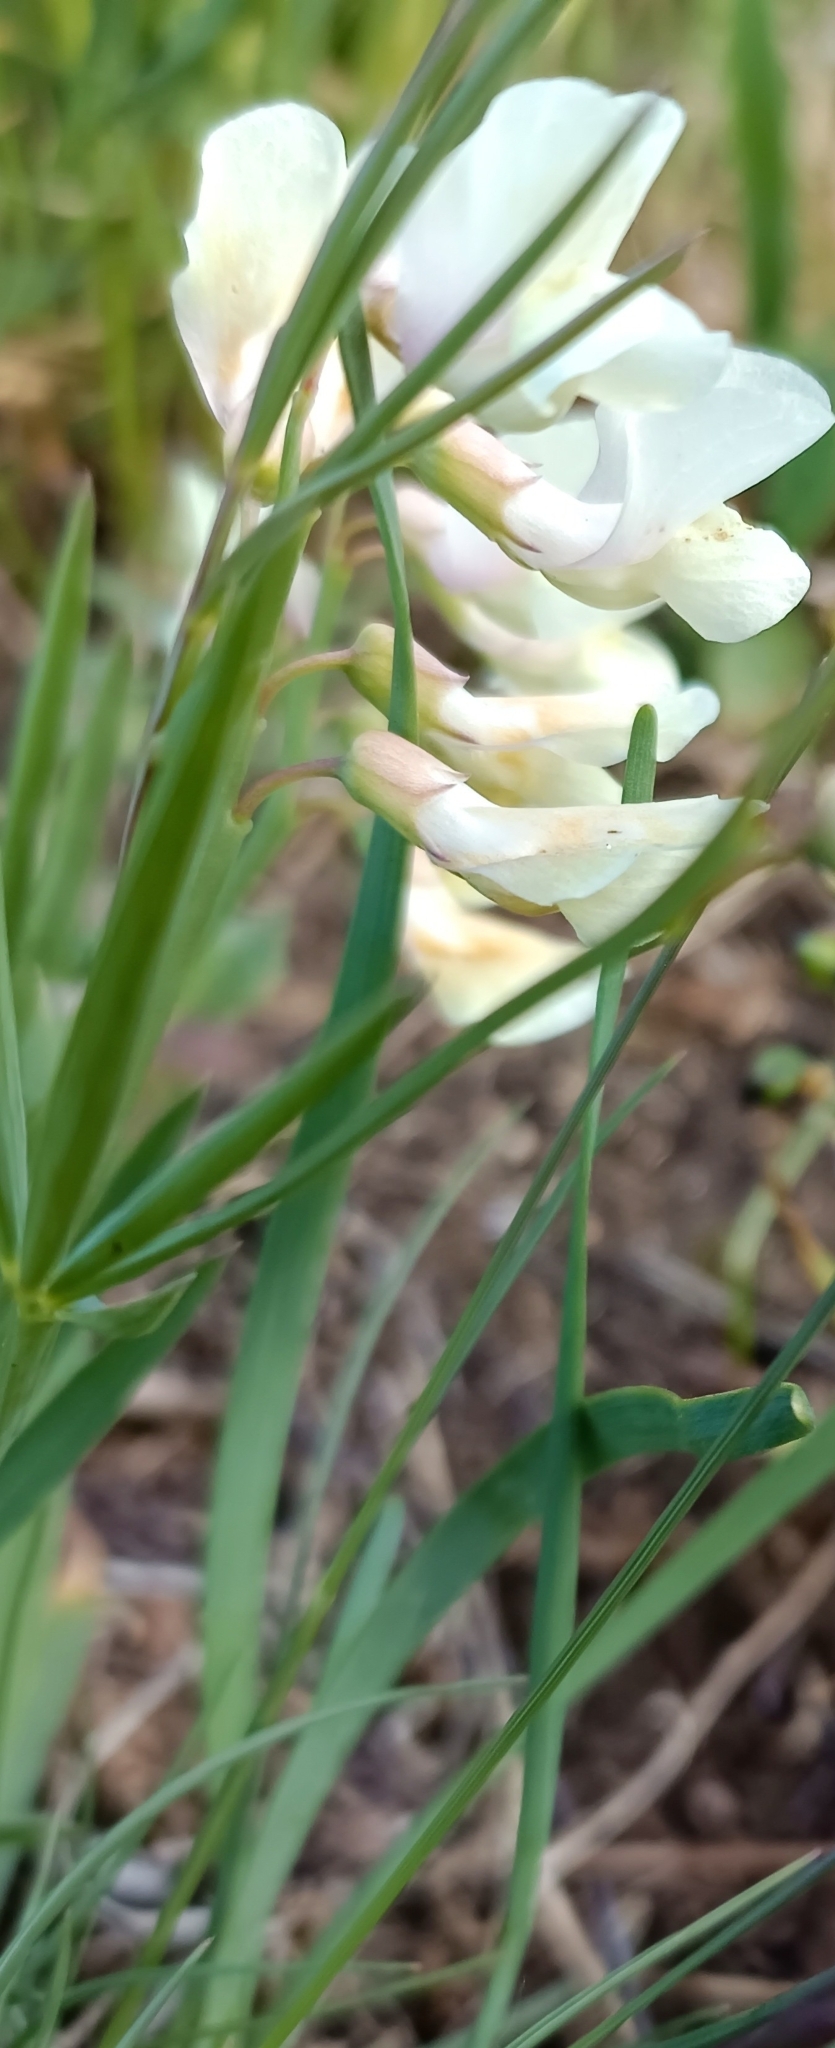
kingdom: Plantae
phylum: Tracheophyta
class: Magnoliopsida
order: Fabales
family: Fabaceae
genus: Lathyrus
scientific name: Lathyrus pannonicus
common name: Pea
